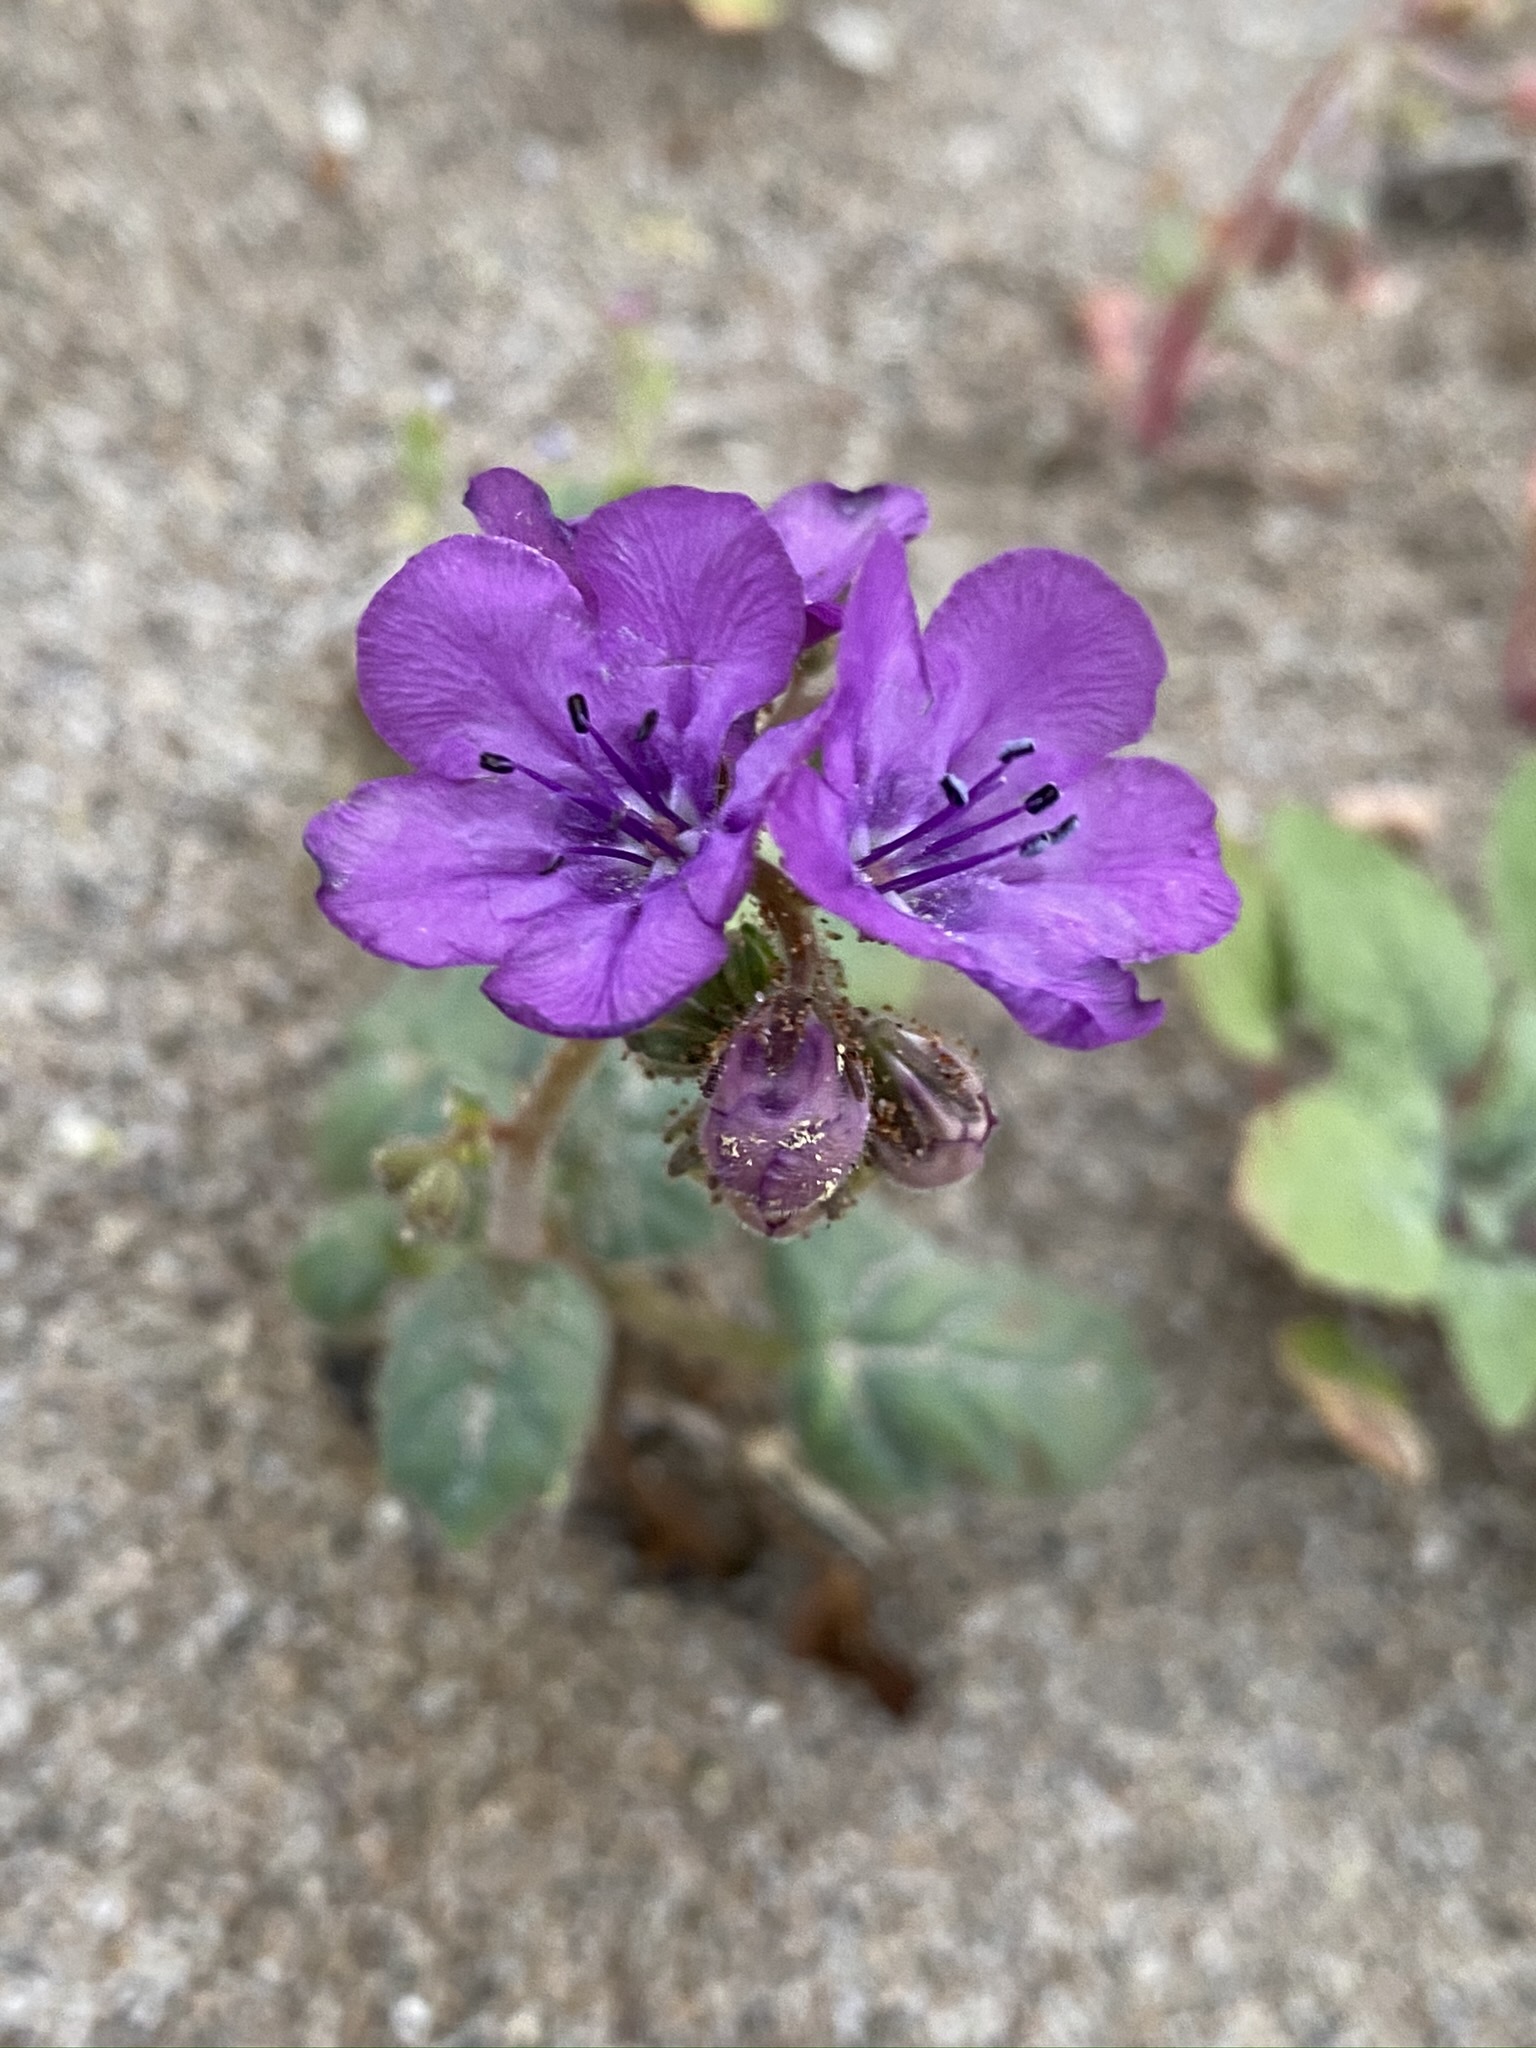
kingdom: Plantae
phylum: Tracheophyta
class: Magnoliopsida
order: Boraginales
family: Hydrophyllaceae
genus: Phacelia
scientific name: Phacelia calthifolia
